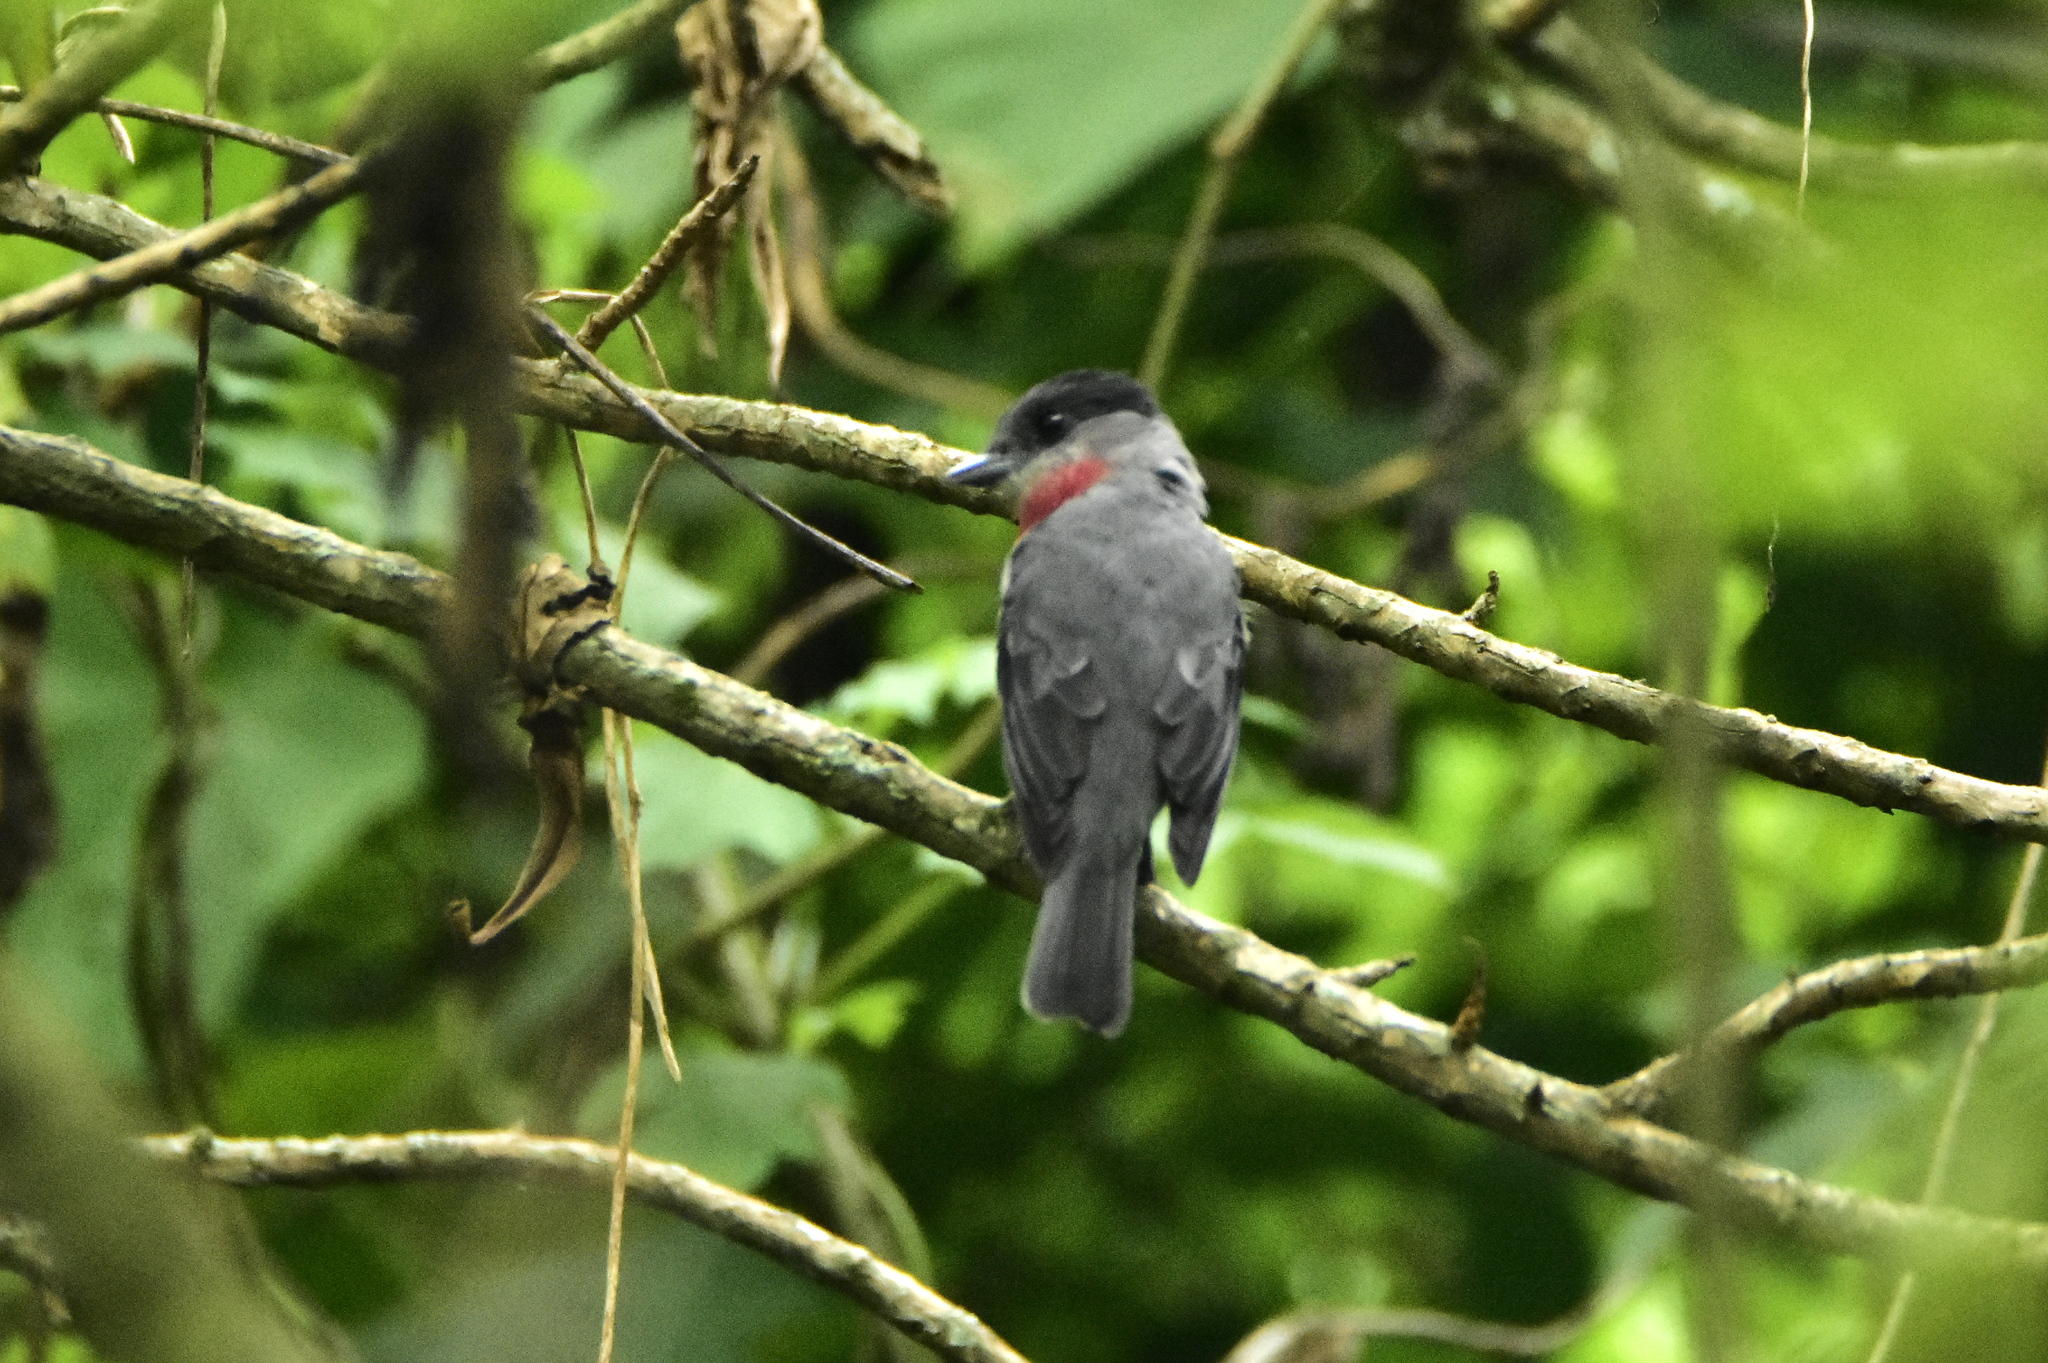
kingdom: Animalia
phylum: Chordata
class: Aves
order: Passeriformes
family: Cotingidae
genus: Pachyramphus
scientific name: Pachyramphus aglaiae
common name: Rose-throated becard
